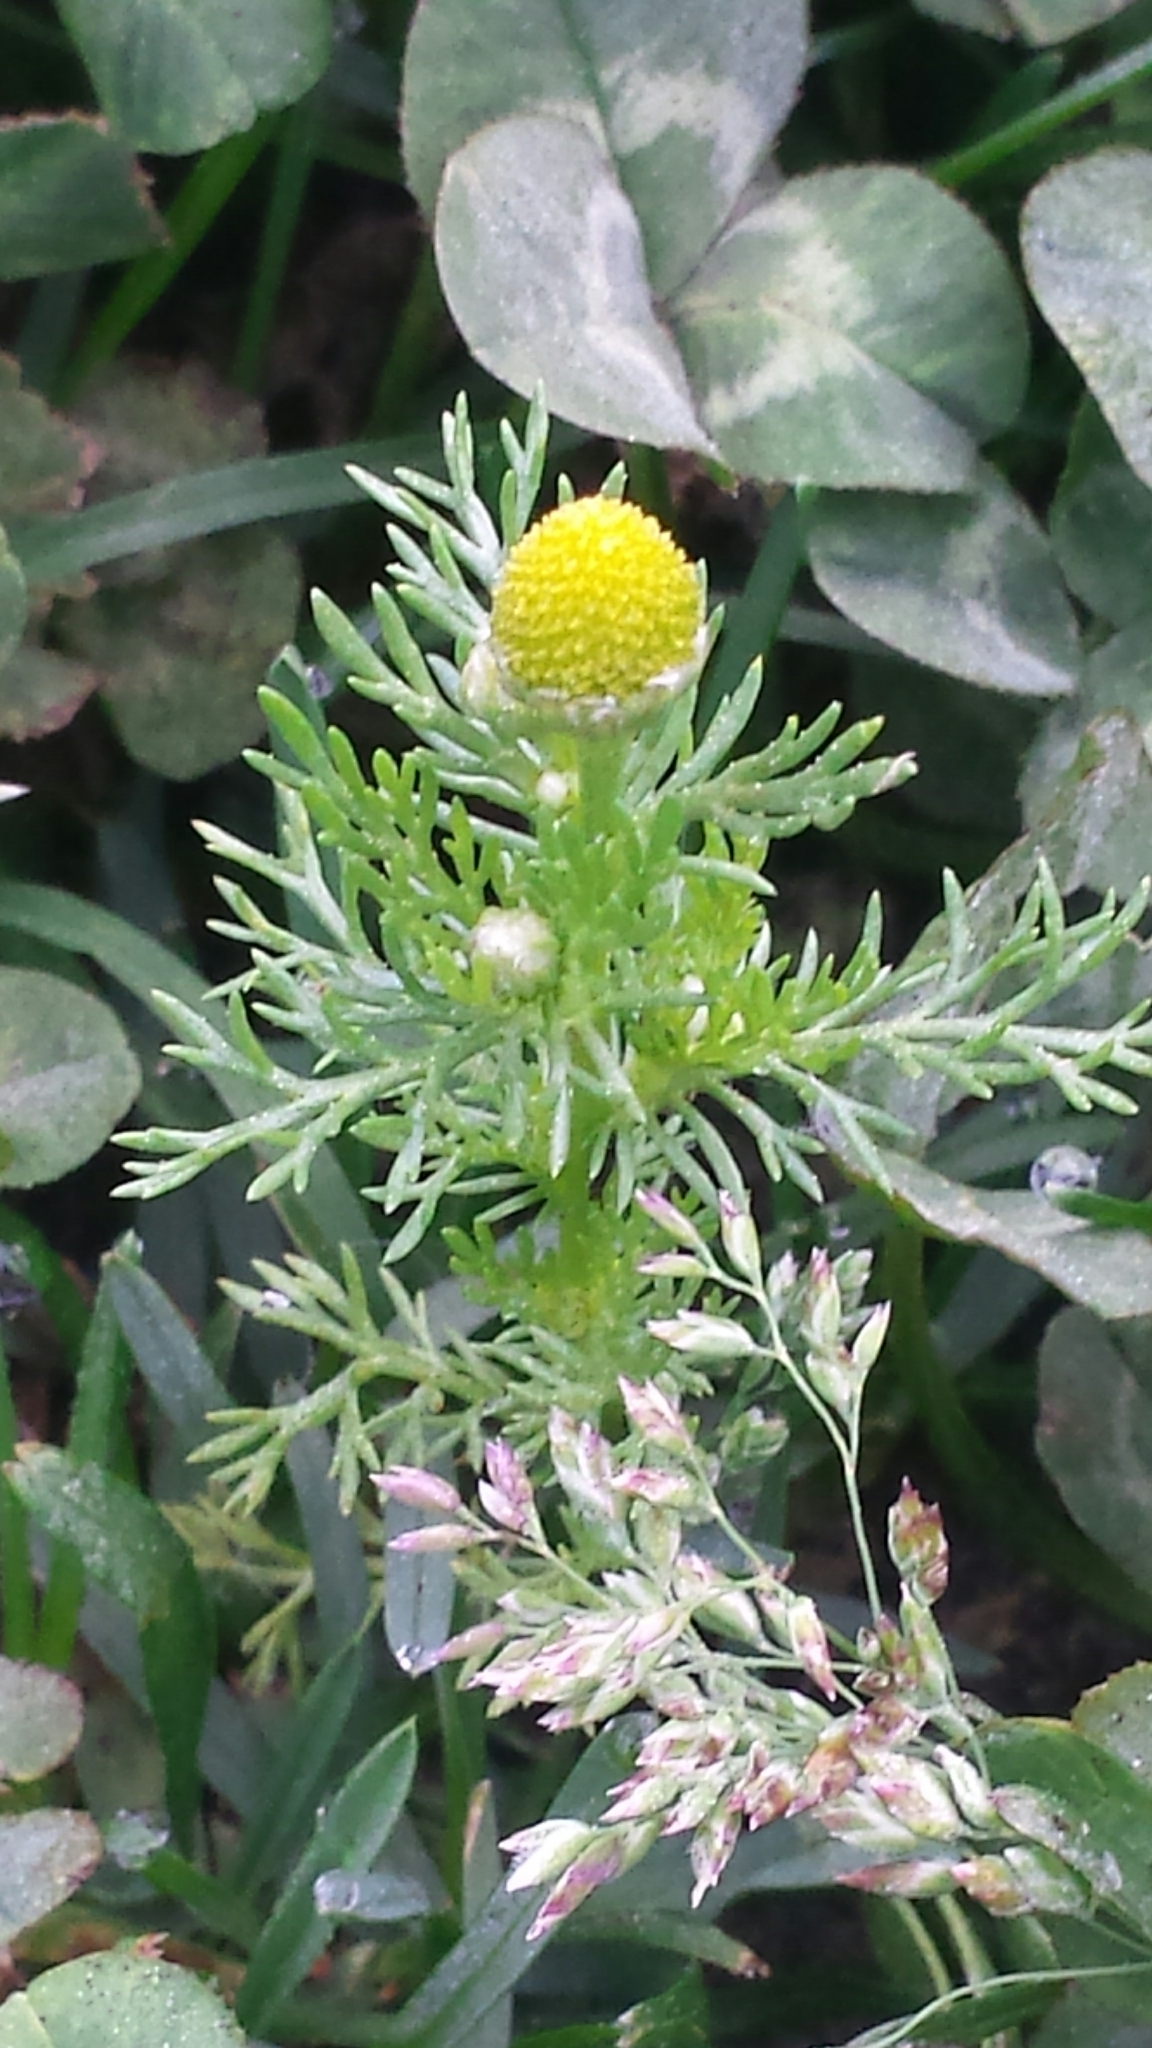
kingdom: Plantae
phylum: Tracheophyta
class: Magnoliopsida
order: Asterales
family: Asteraceae
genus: Matricaria
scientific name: Matricaria discoidea
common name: Disc mayweed
